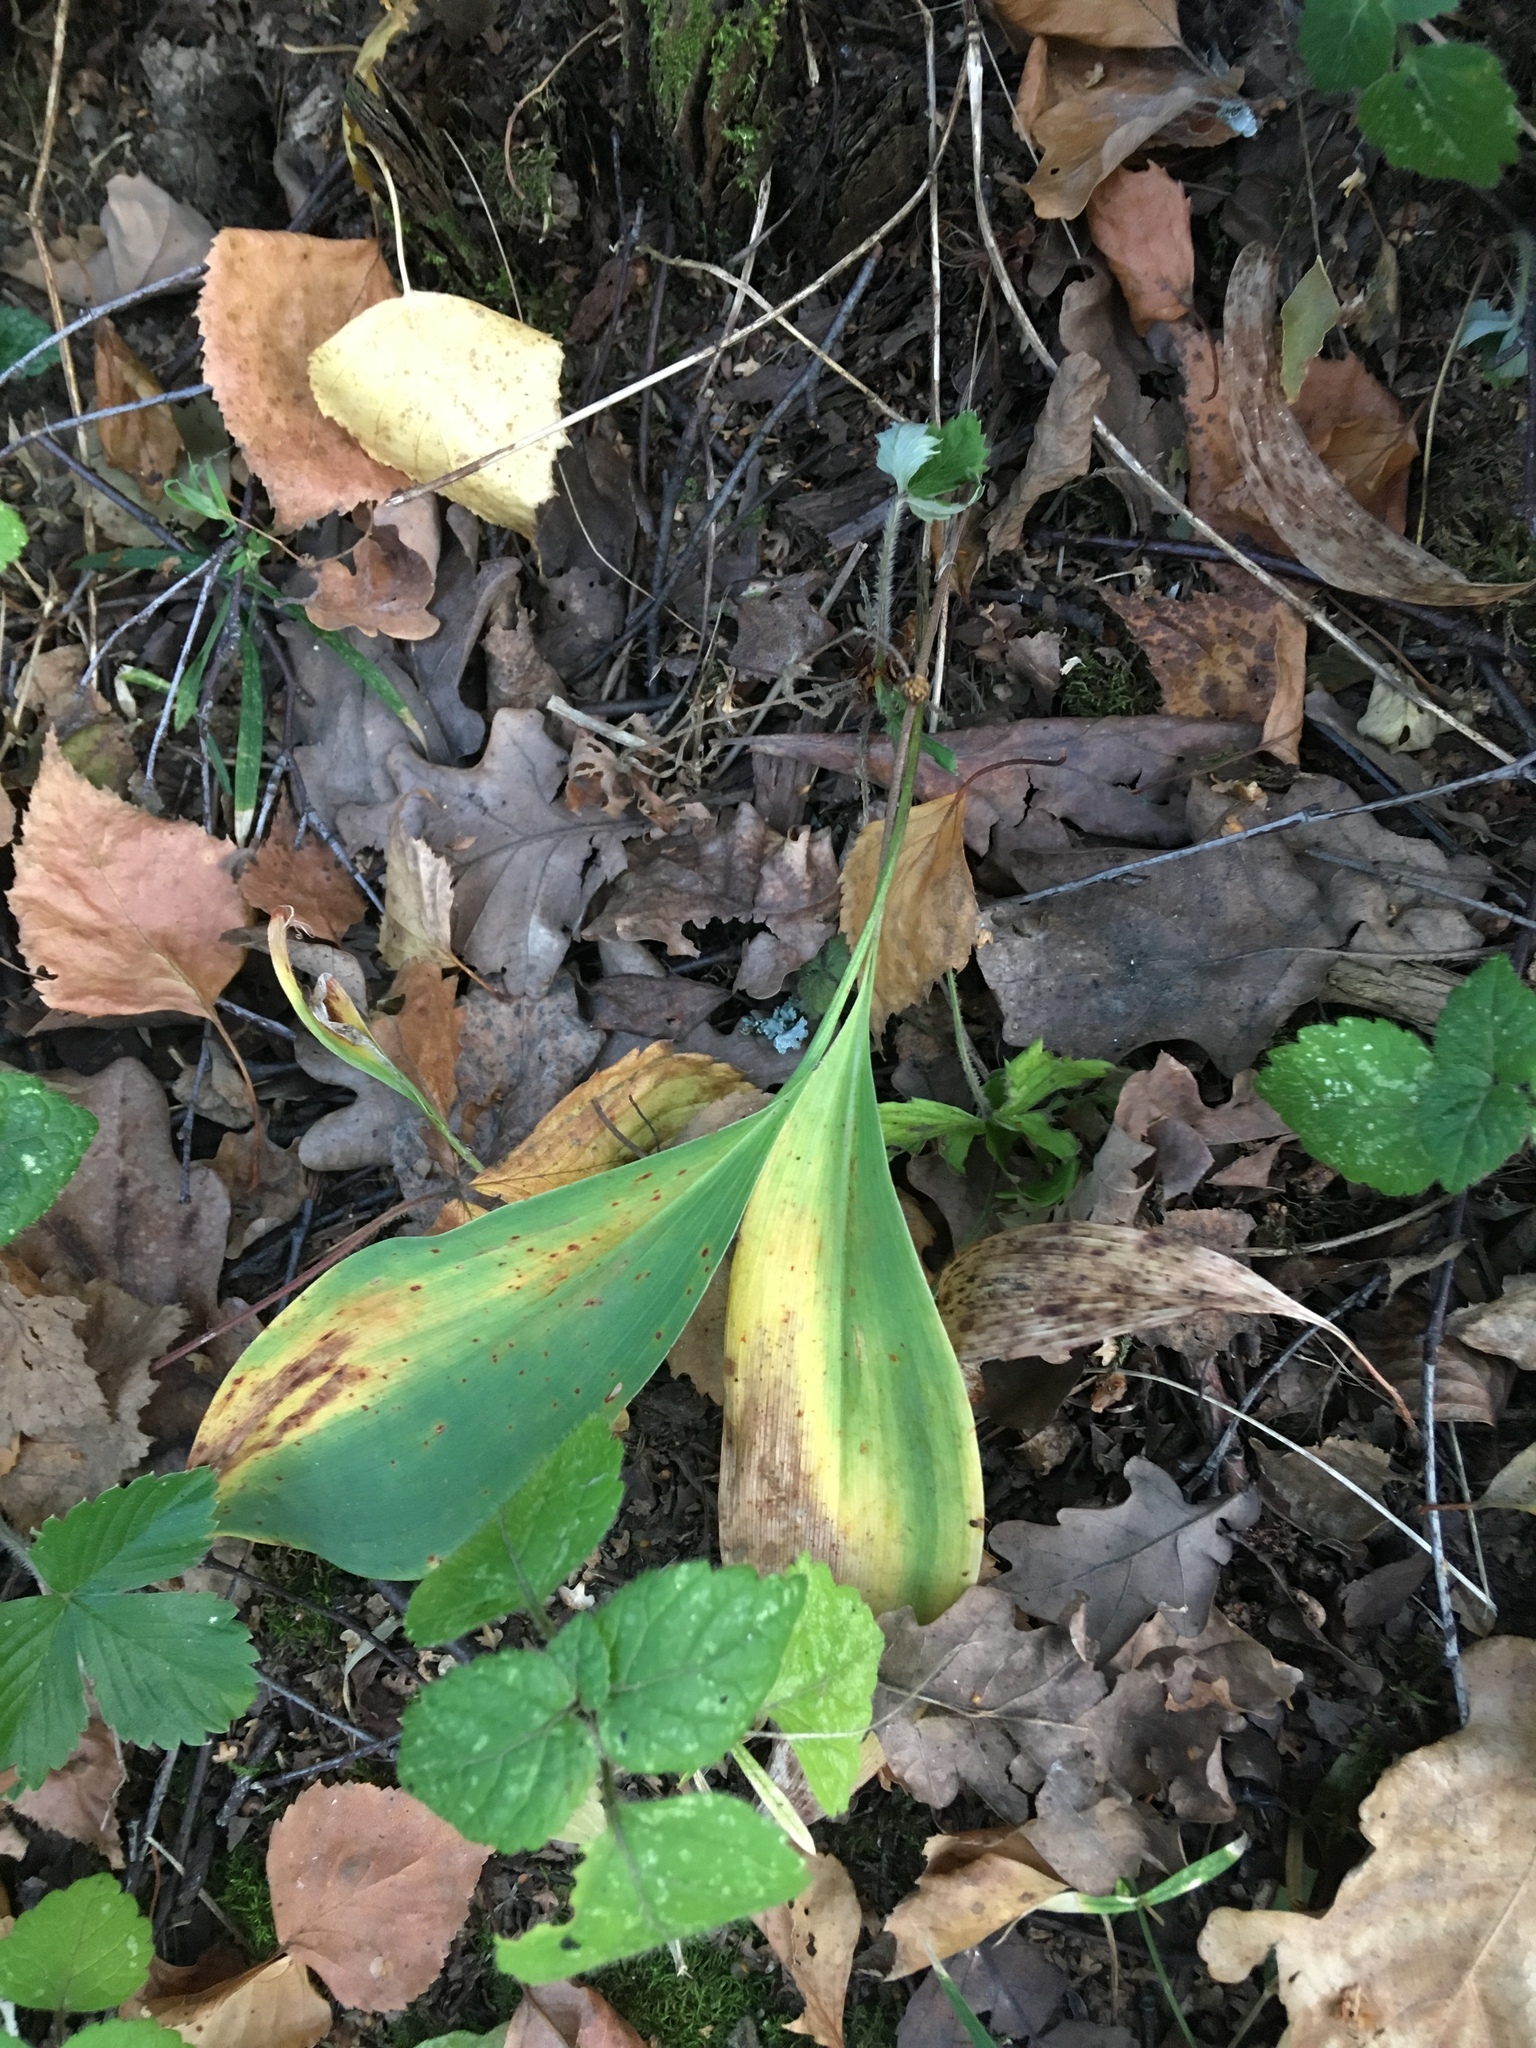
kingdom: Plantae
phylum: Tracheophyta
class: Liliopsida
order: Asparagales
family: Asparagaceae
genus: Convallaria
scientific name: Convallaria majalis
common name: Lily-of-the-valley
